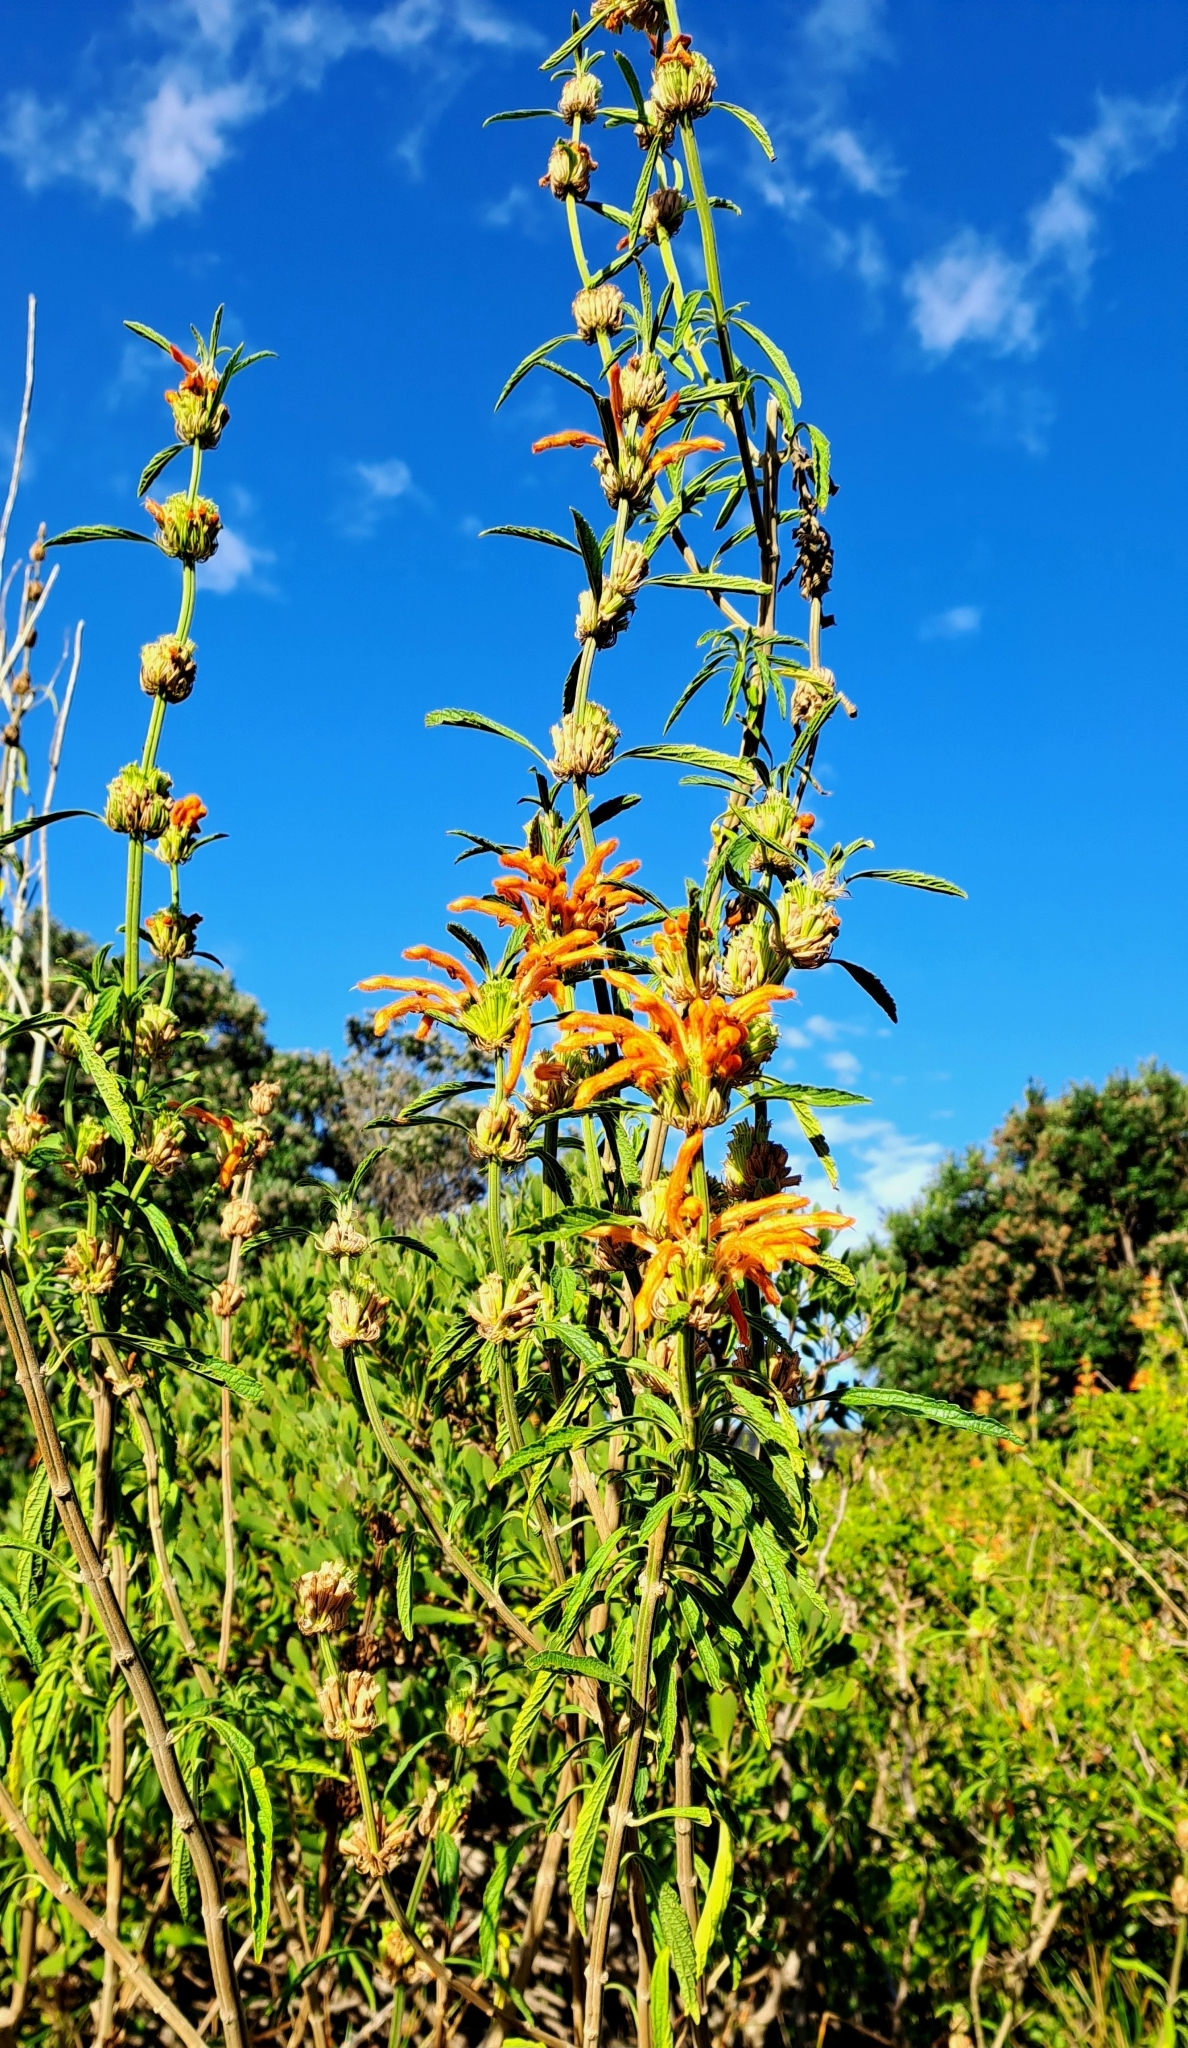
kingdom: Plantae
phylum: Tracheophyta
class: Magnoliopsida
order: Lamiales
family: Lamiaceae
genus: Leonotis
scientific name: Leonotis leonurus
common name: Lion's ear
